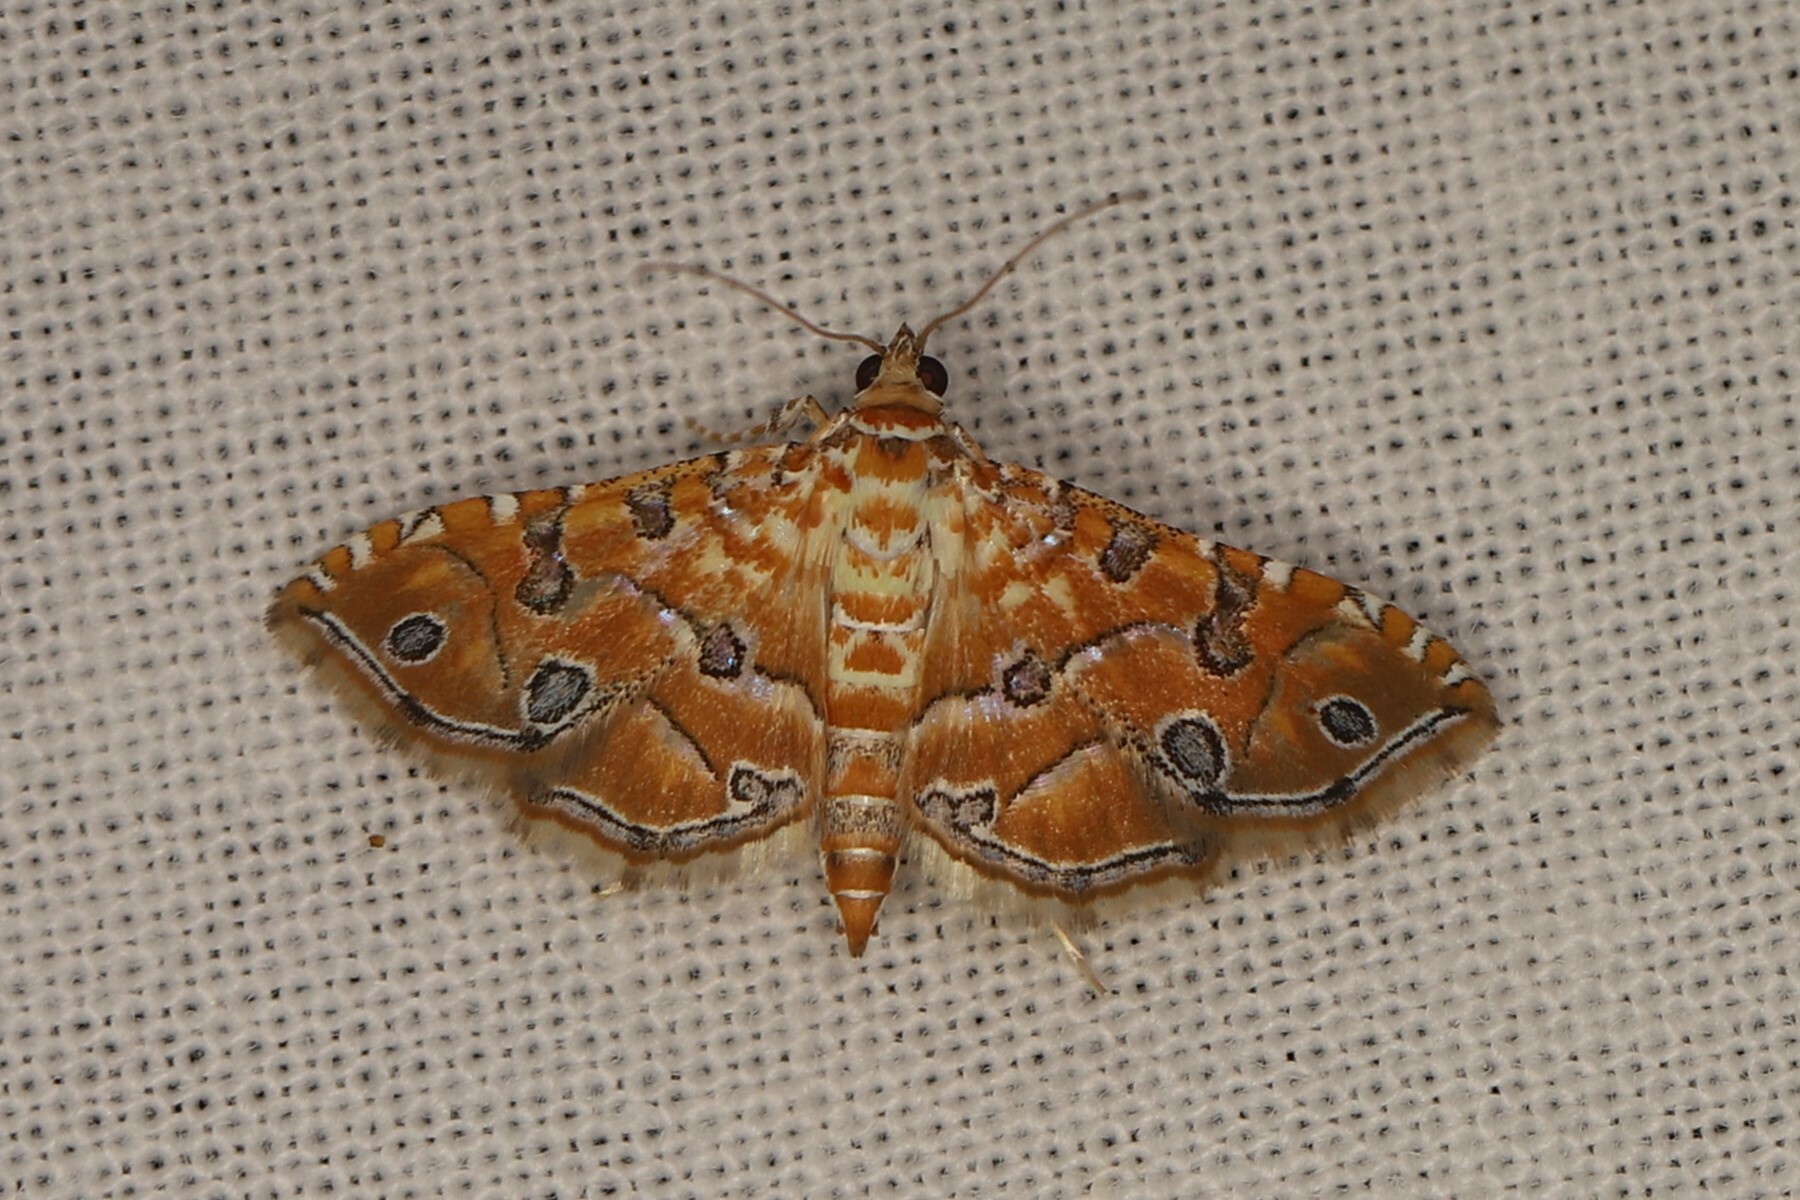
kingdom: Animalia
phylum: Arthropoda
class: Insecta
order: Lepidoptera
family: Crambidae
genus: Ommatospila
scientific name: Ommatospila narcaeusalis
